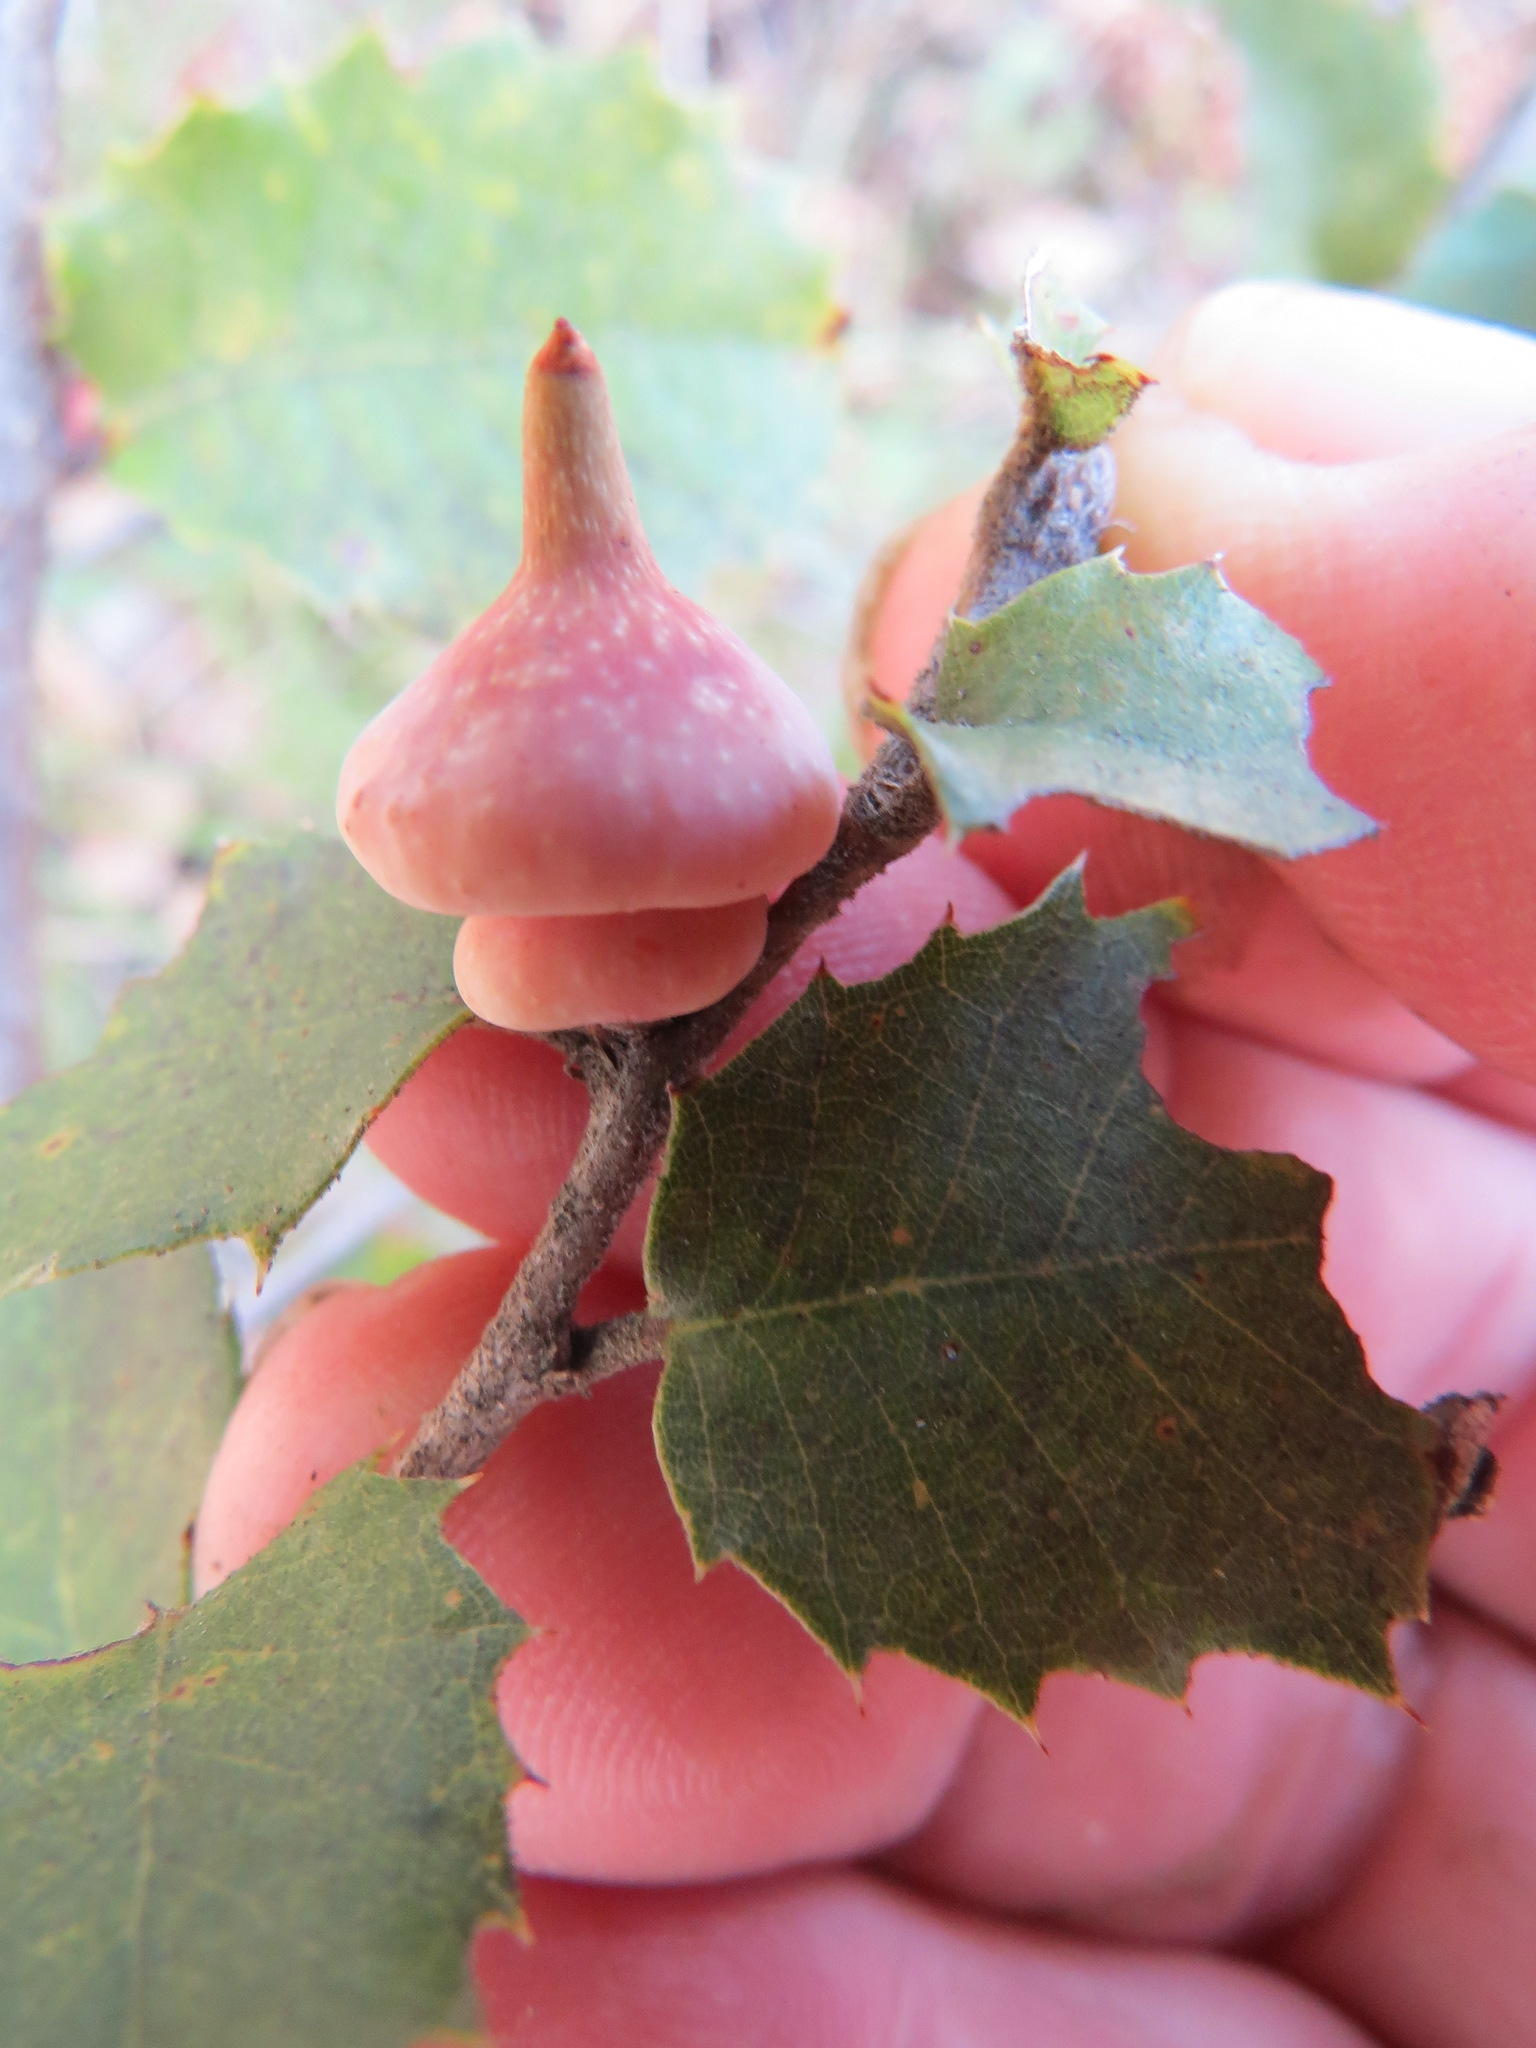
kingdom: Animalia
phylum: Arthropoda
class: Insecta
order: Hymenoptera
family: Cynipidae
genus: Heteroecus
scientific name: Heteroecus
